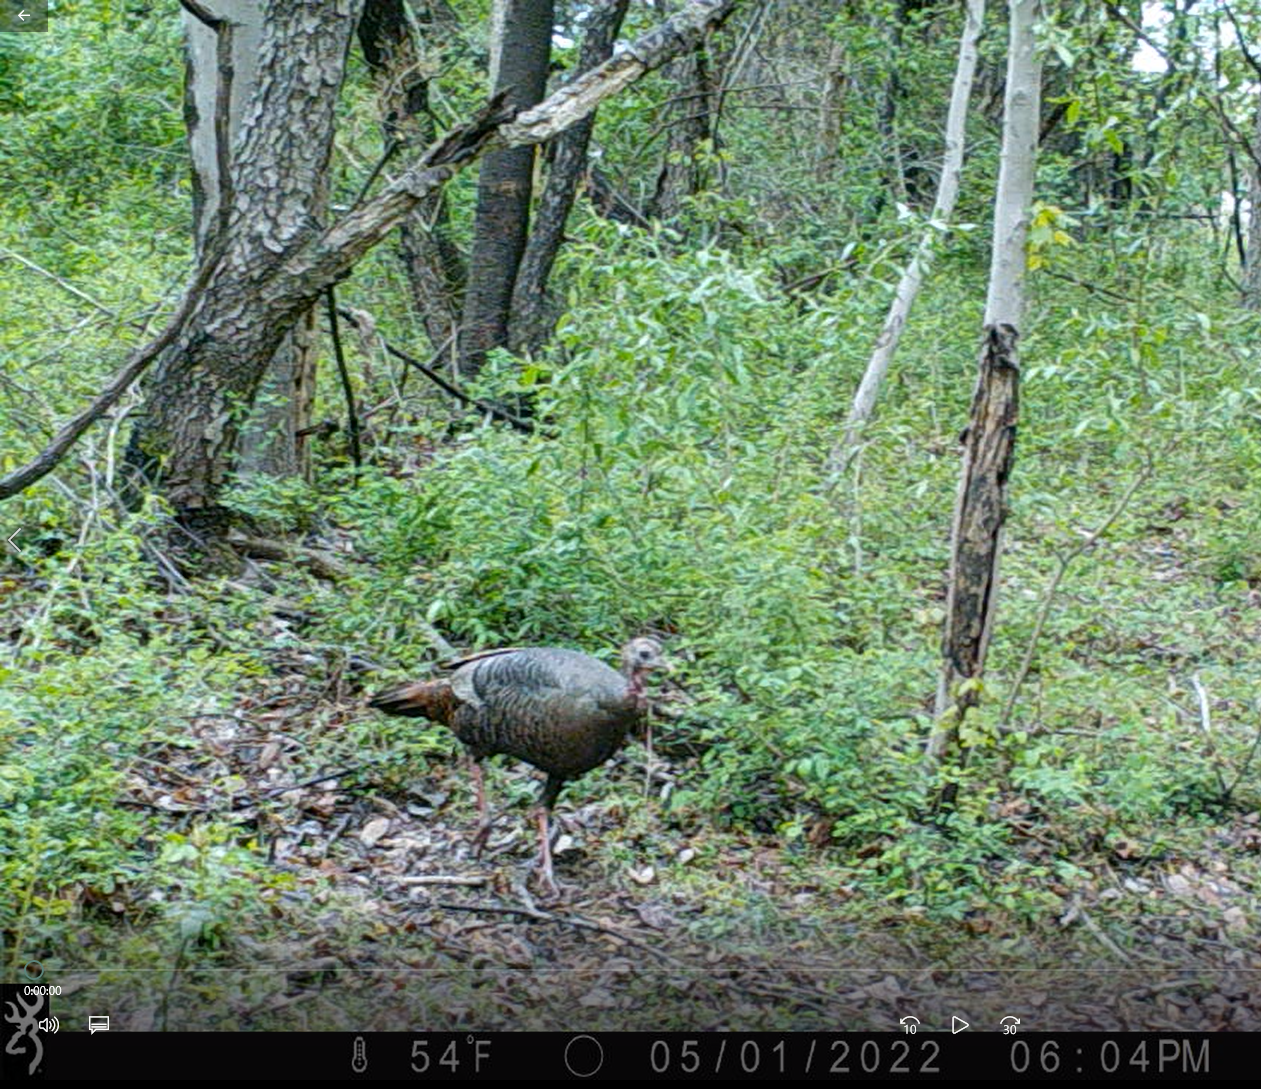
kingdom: Animalia
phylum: Chordata
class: Aves
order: Galliformes
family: Phasianidae
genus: Meleagris
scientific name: Meleagris gallopavo
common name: Wild turkey
